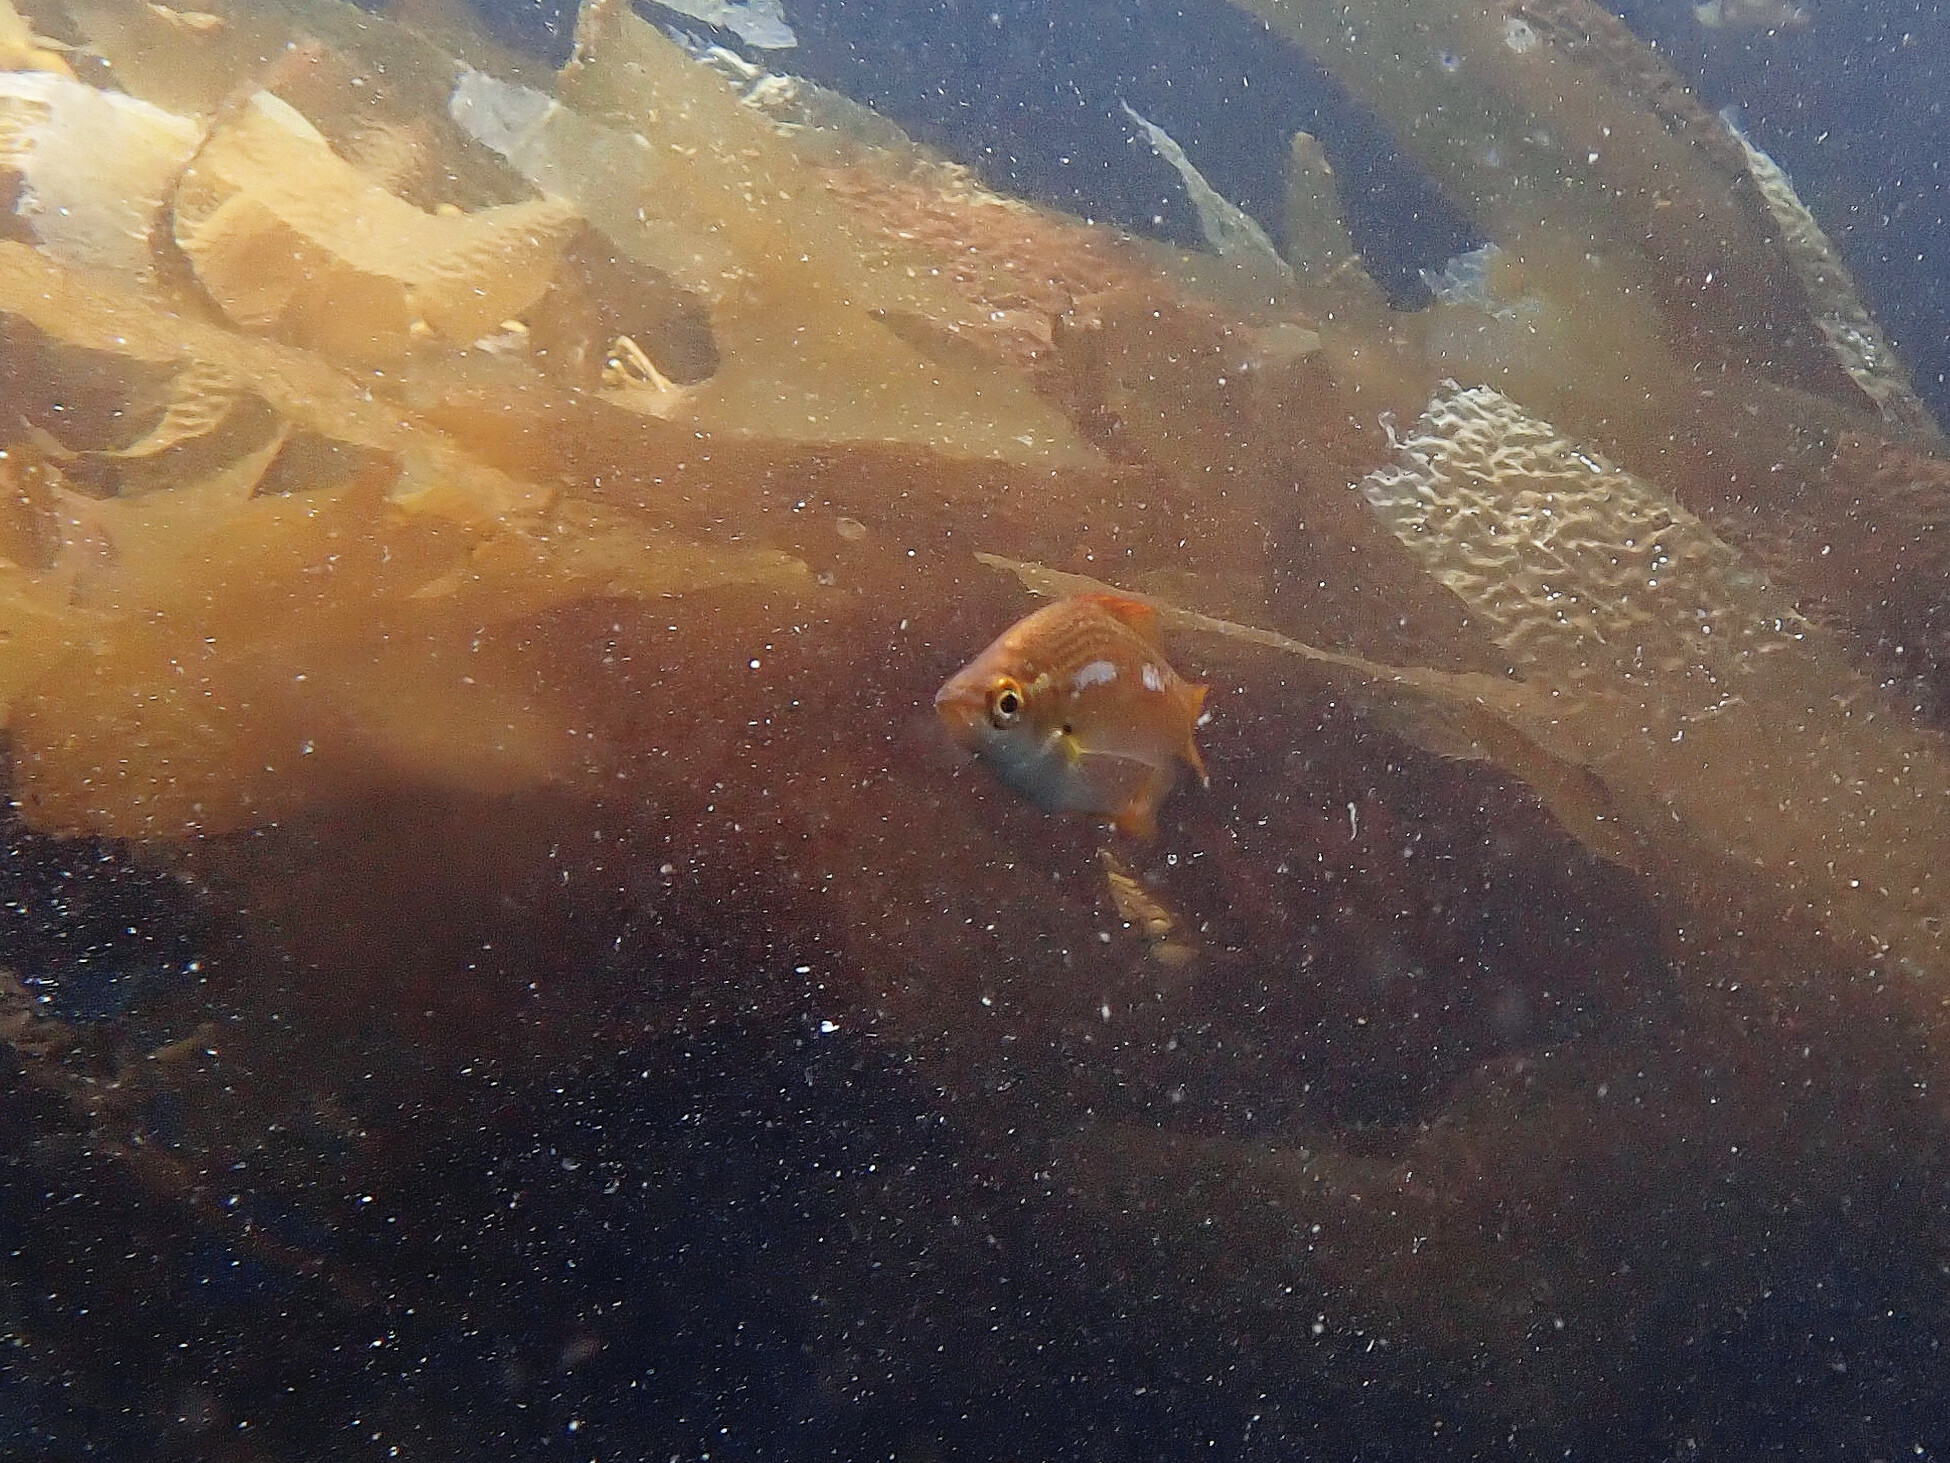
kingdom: Animalia
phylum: Chordata
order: Perciformes
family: Embiotocidae
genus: Brachyistius
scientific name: Brachyistius frenatus
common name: Kelp perch
